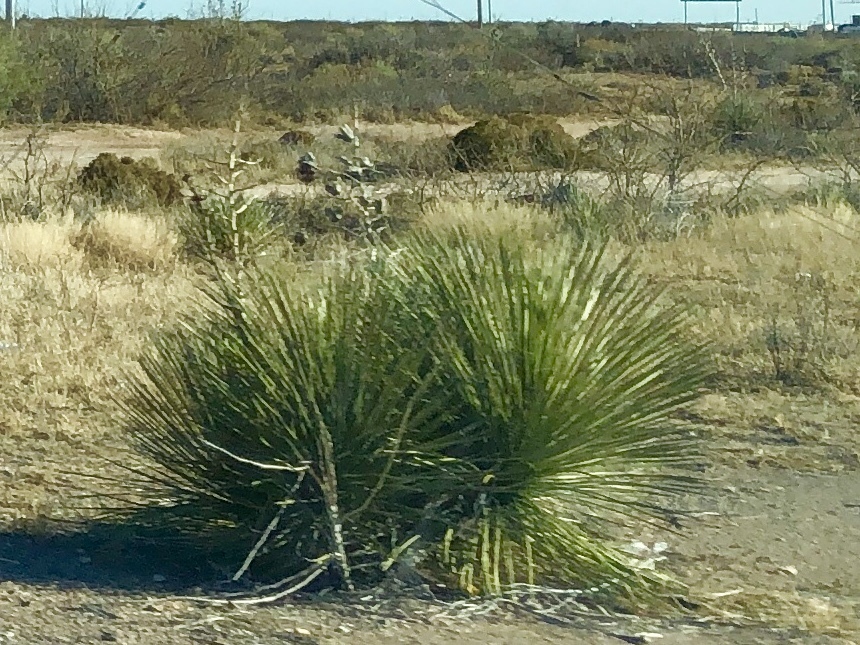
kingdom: Plantae
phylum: Tracheophyta
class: Liliopsida
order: Asparagales
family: Asparagaceae
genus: Yucca
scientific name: Yucca elata
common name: Palmella
